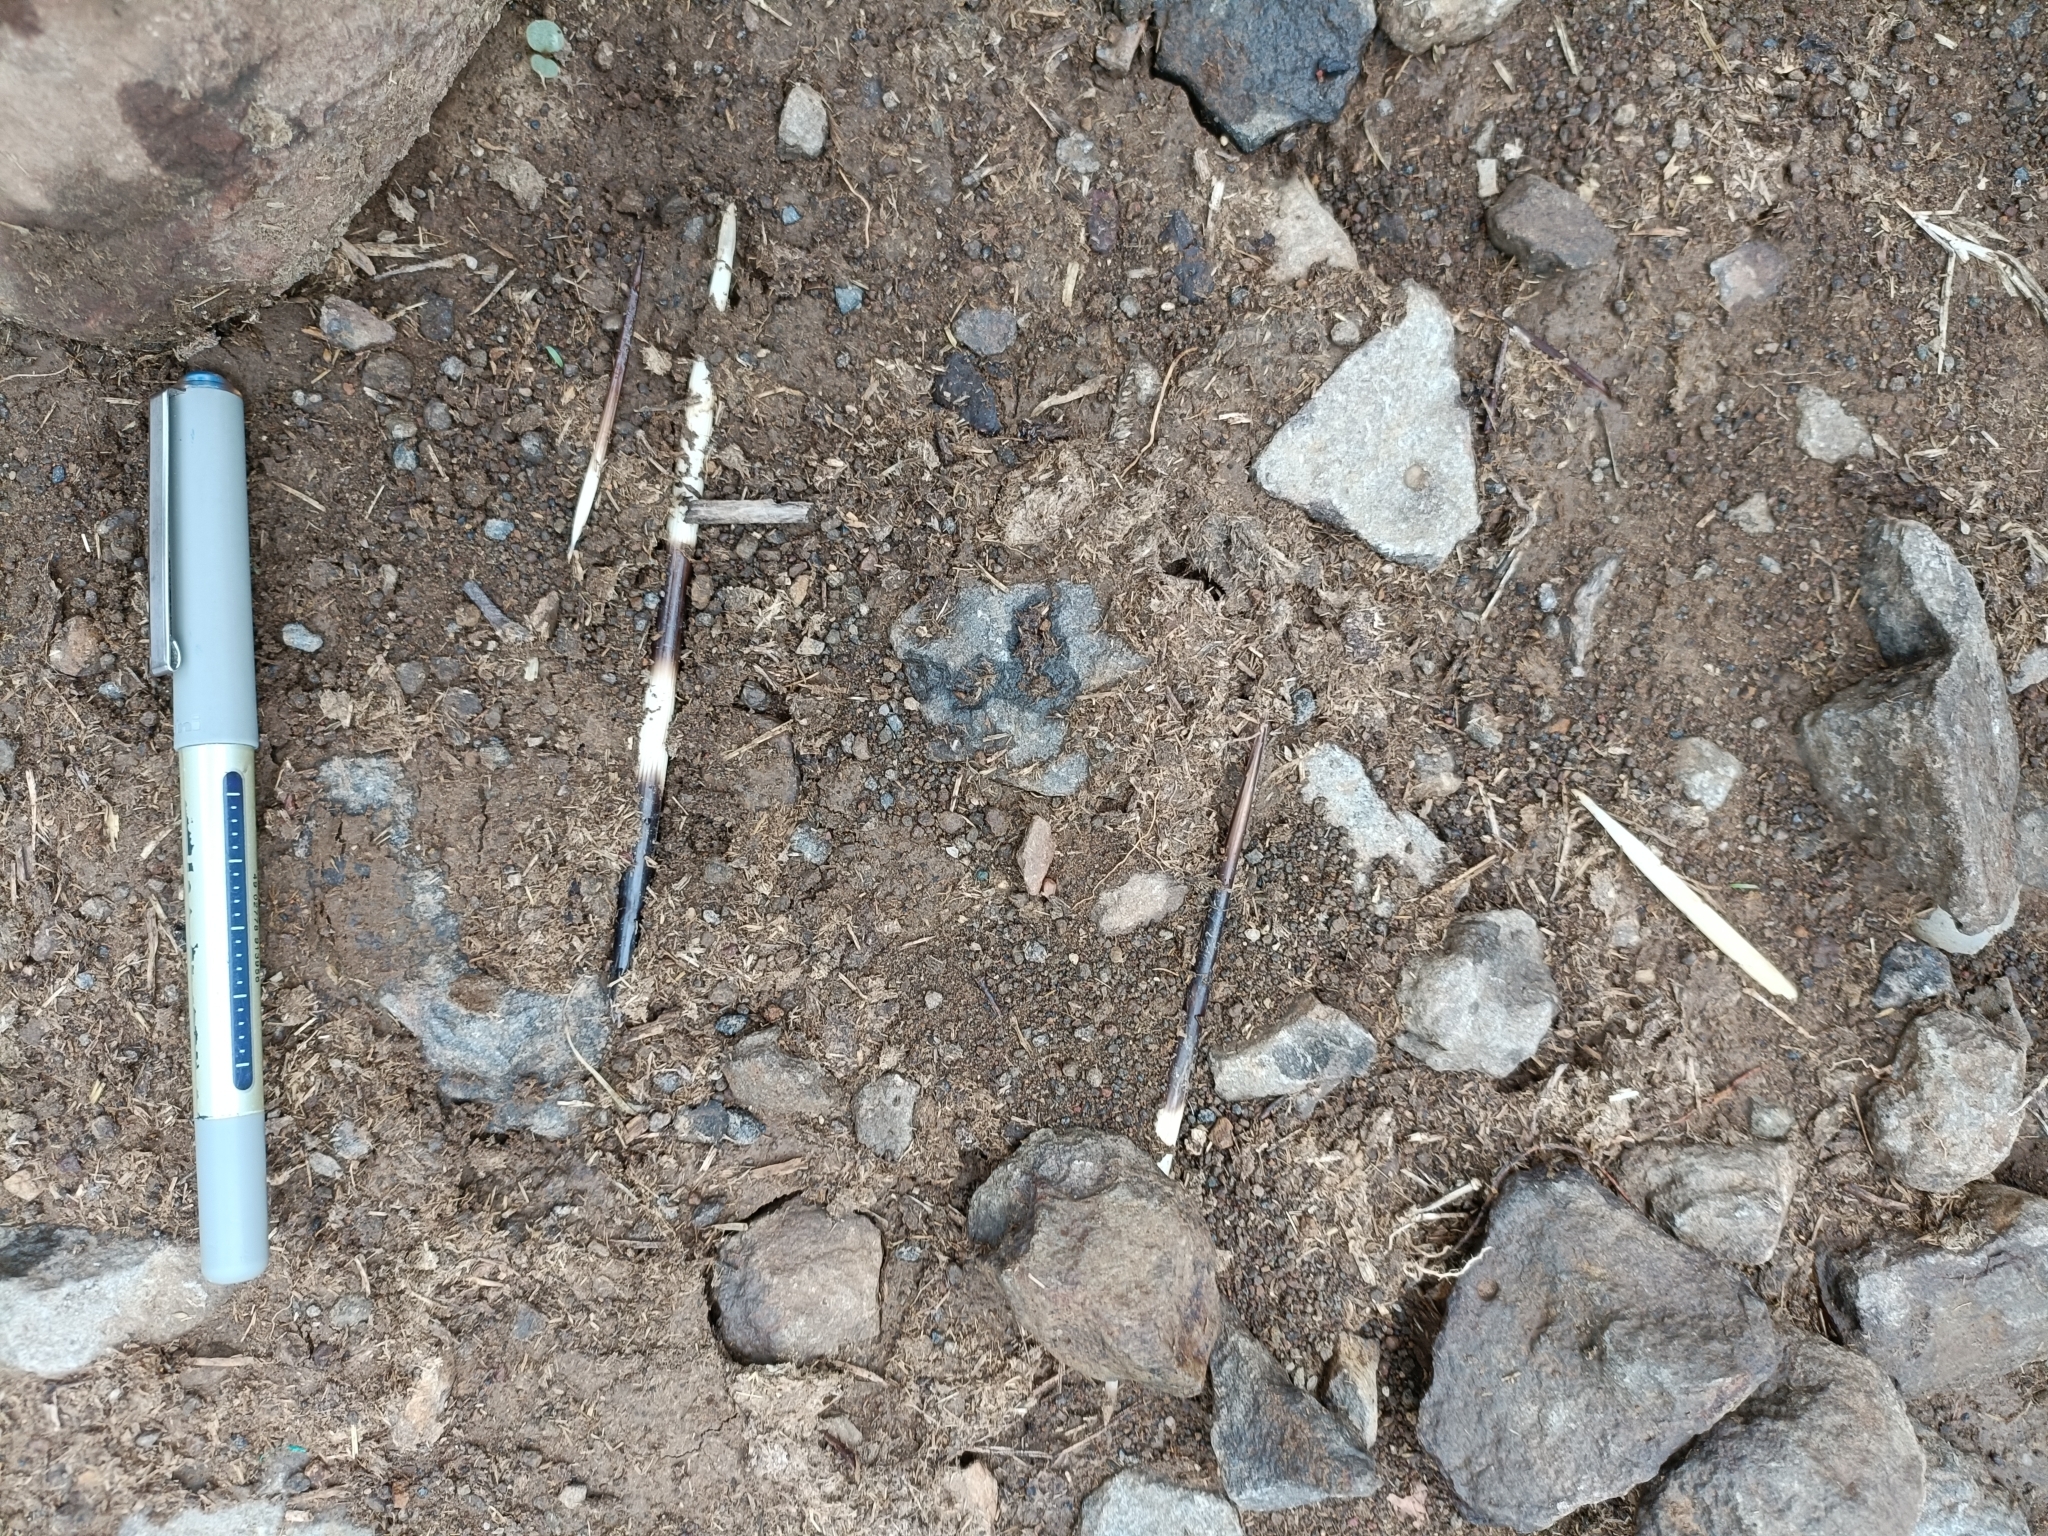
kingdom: Animalia
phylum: Chordata
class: Mammalia
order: Rodentia
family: Hystricidae
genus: Hystrix
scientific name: Hystrix indica
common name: Indian crested porcupine
